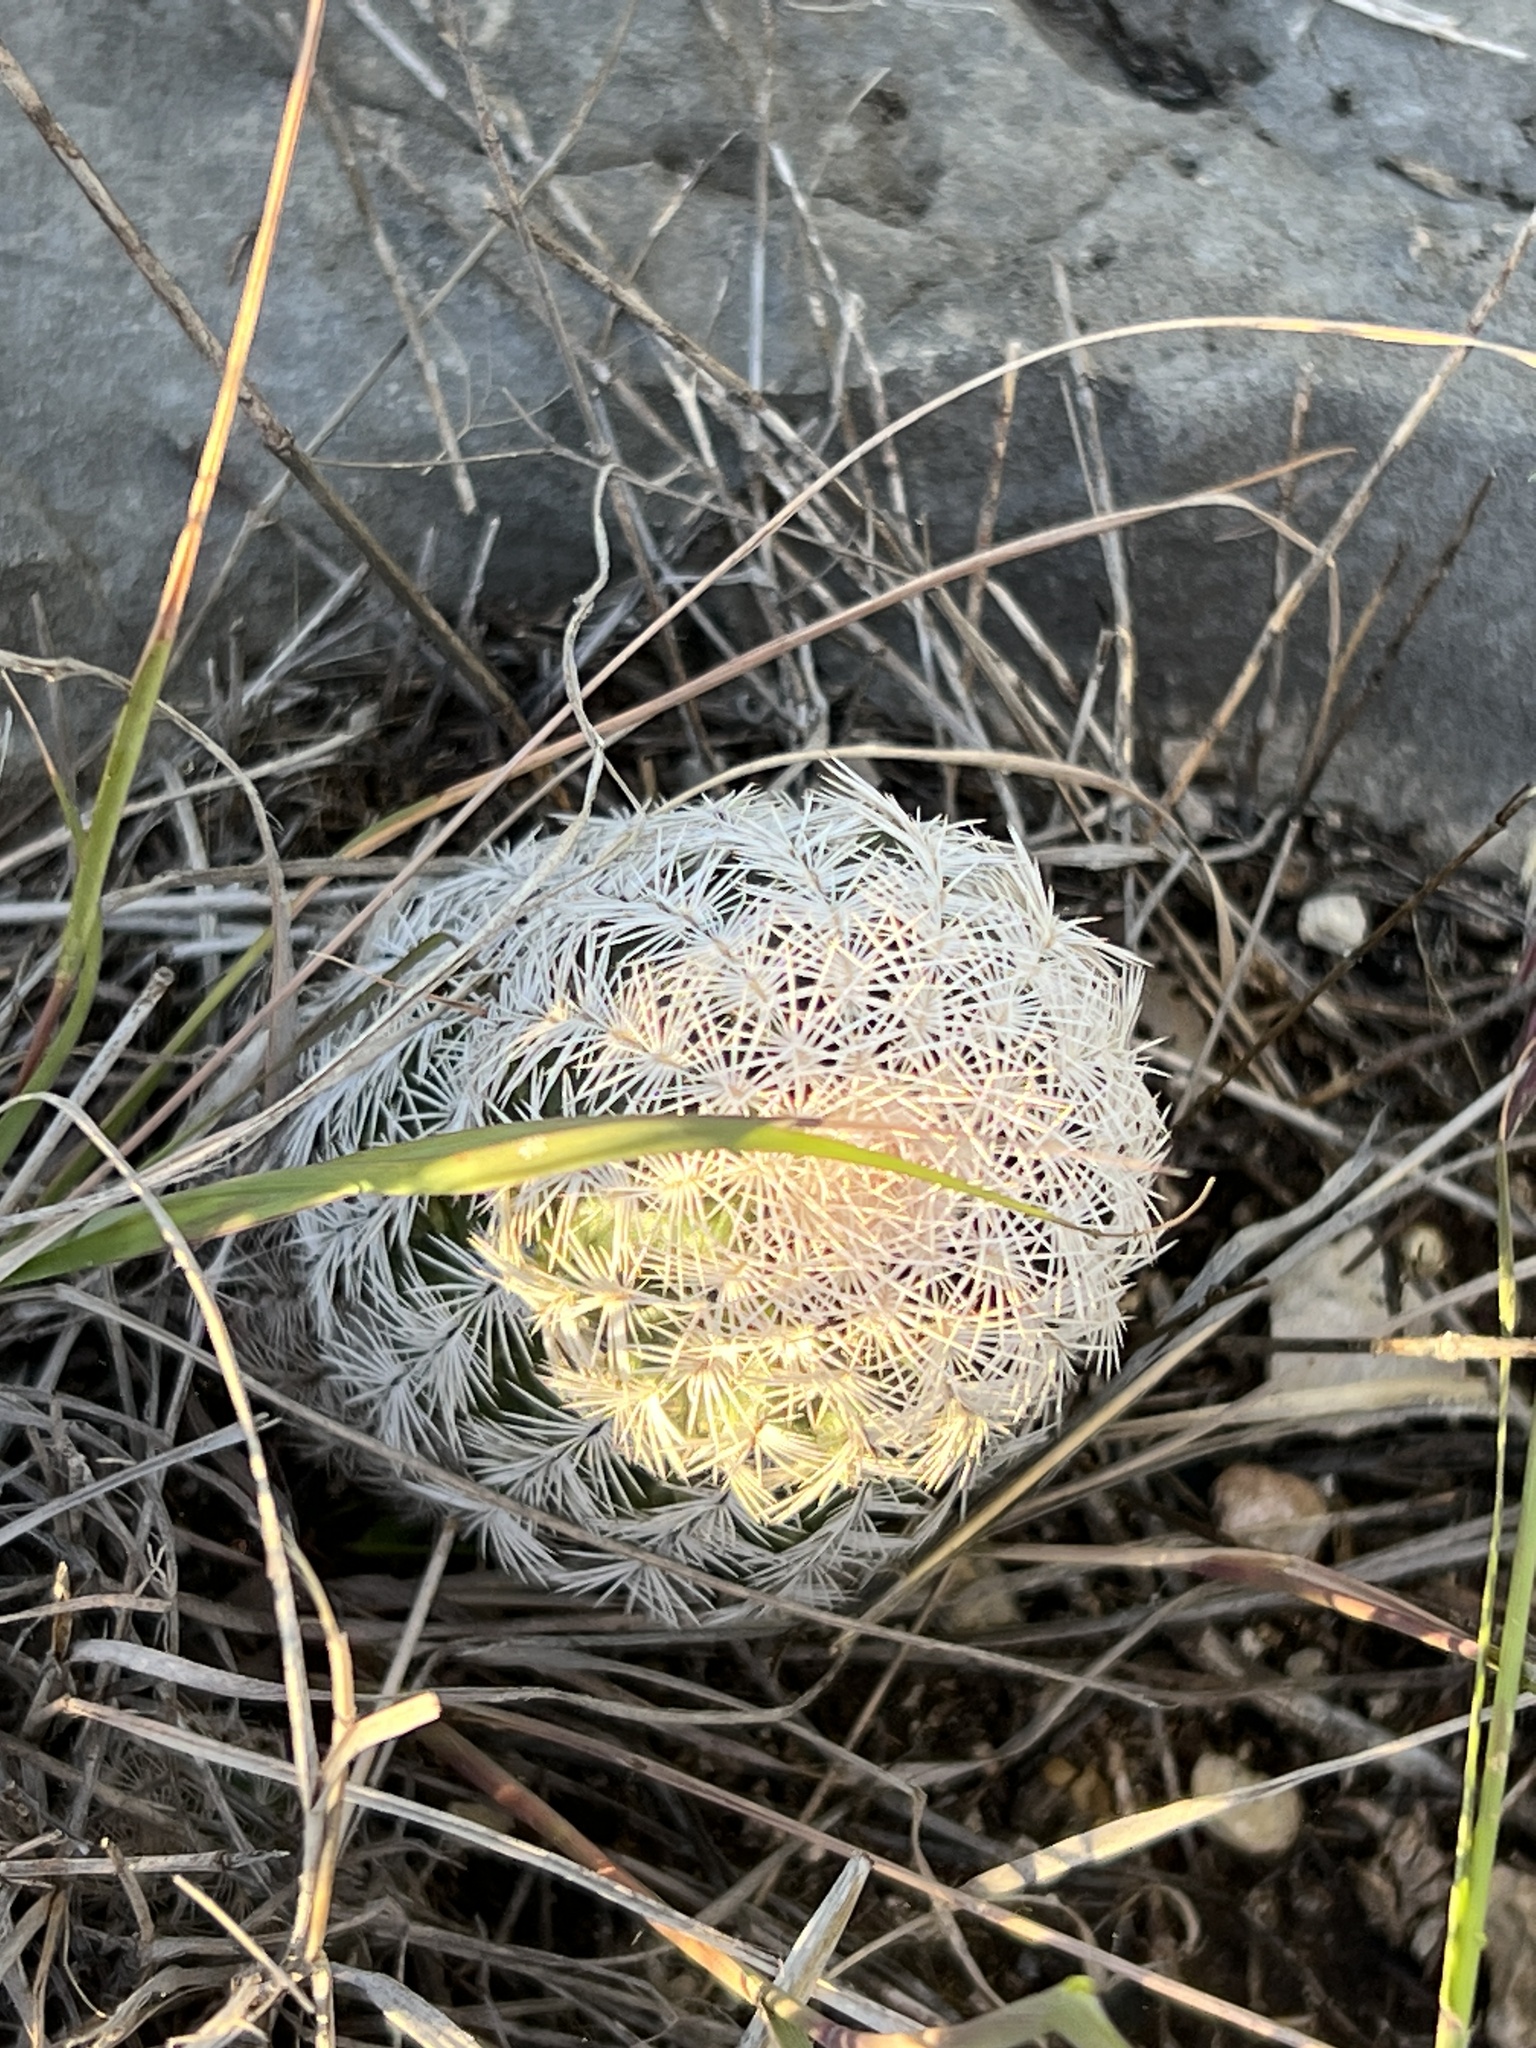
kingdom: Plantae
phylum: Tracheophyta
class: Magnoliopsida
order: Caryophyllales
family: Cactaceae
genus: Echinocereus
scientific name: Echinocereus reichenbachii
